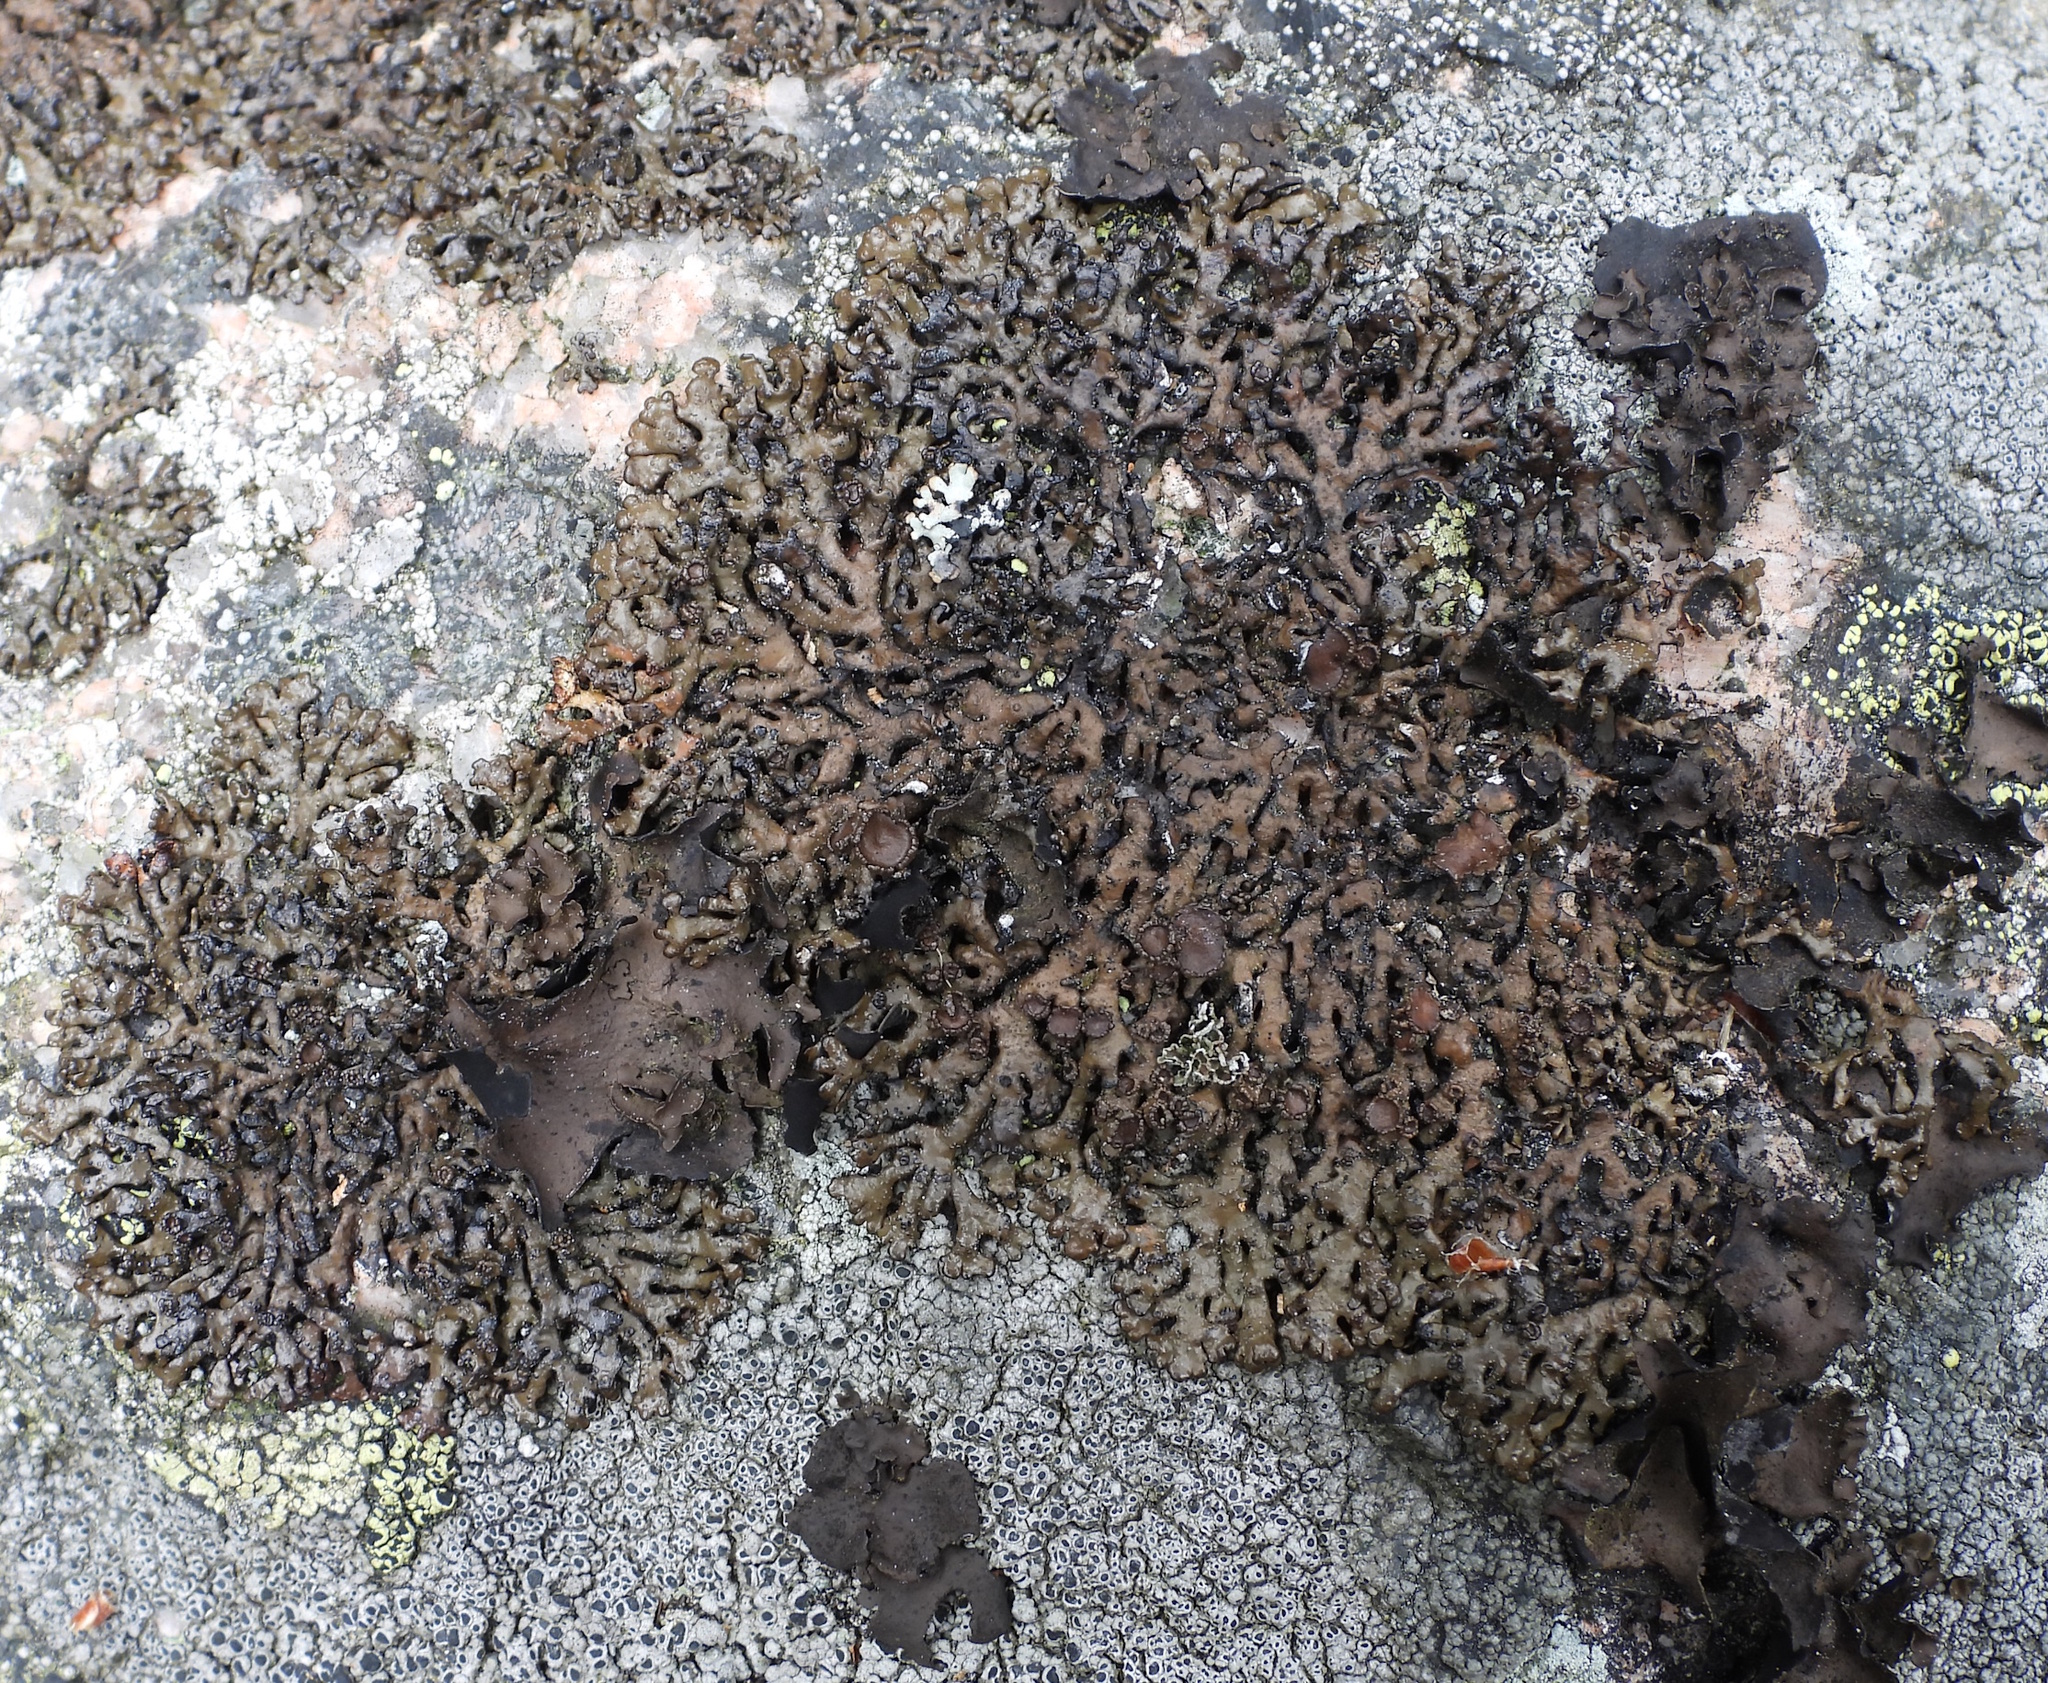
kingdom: Fungi
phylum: Ascomycota
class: Lecanoromycetes
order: Lecanorales
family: Parmeliaceae
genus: Melanelia
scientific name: Melanelia stygia
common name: Alpine camouflage lichen
